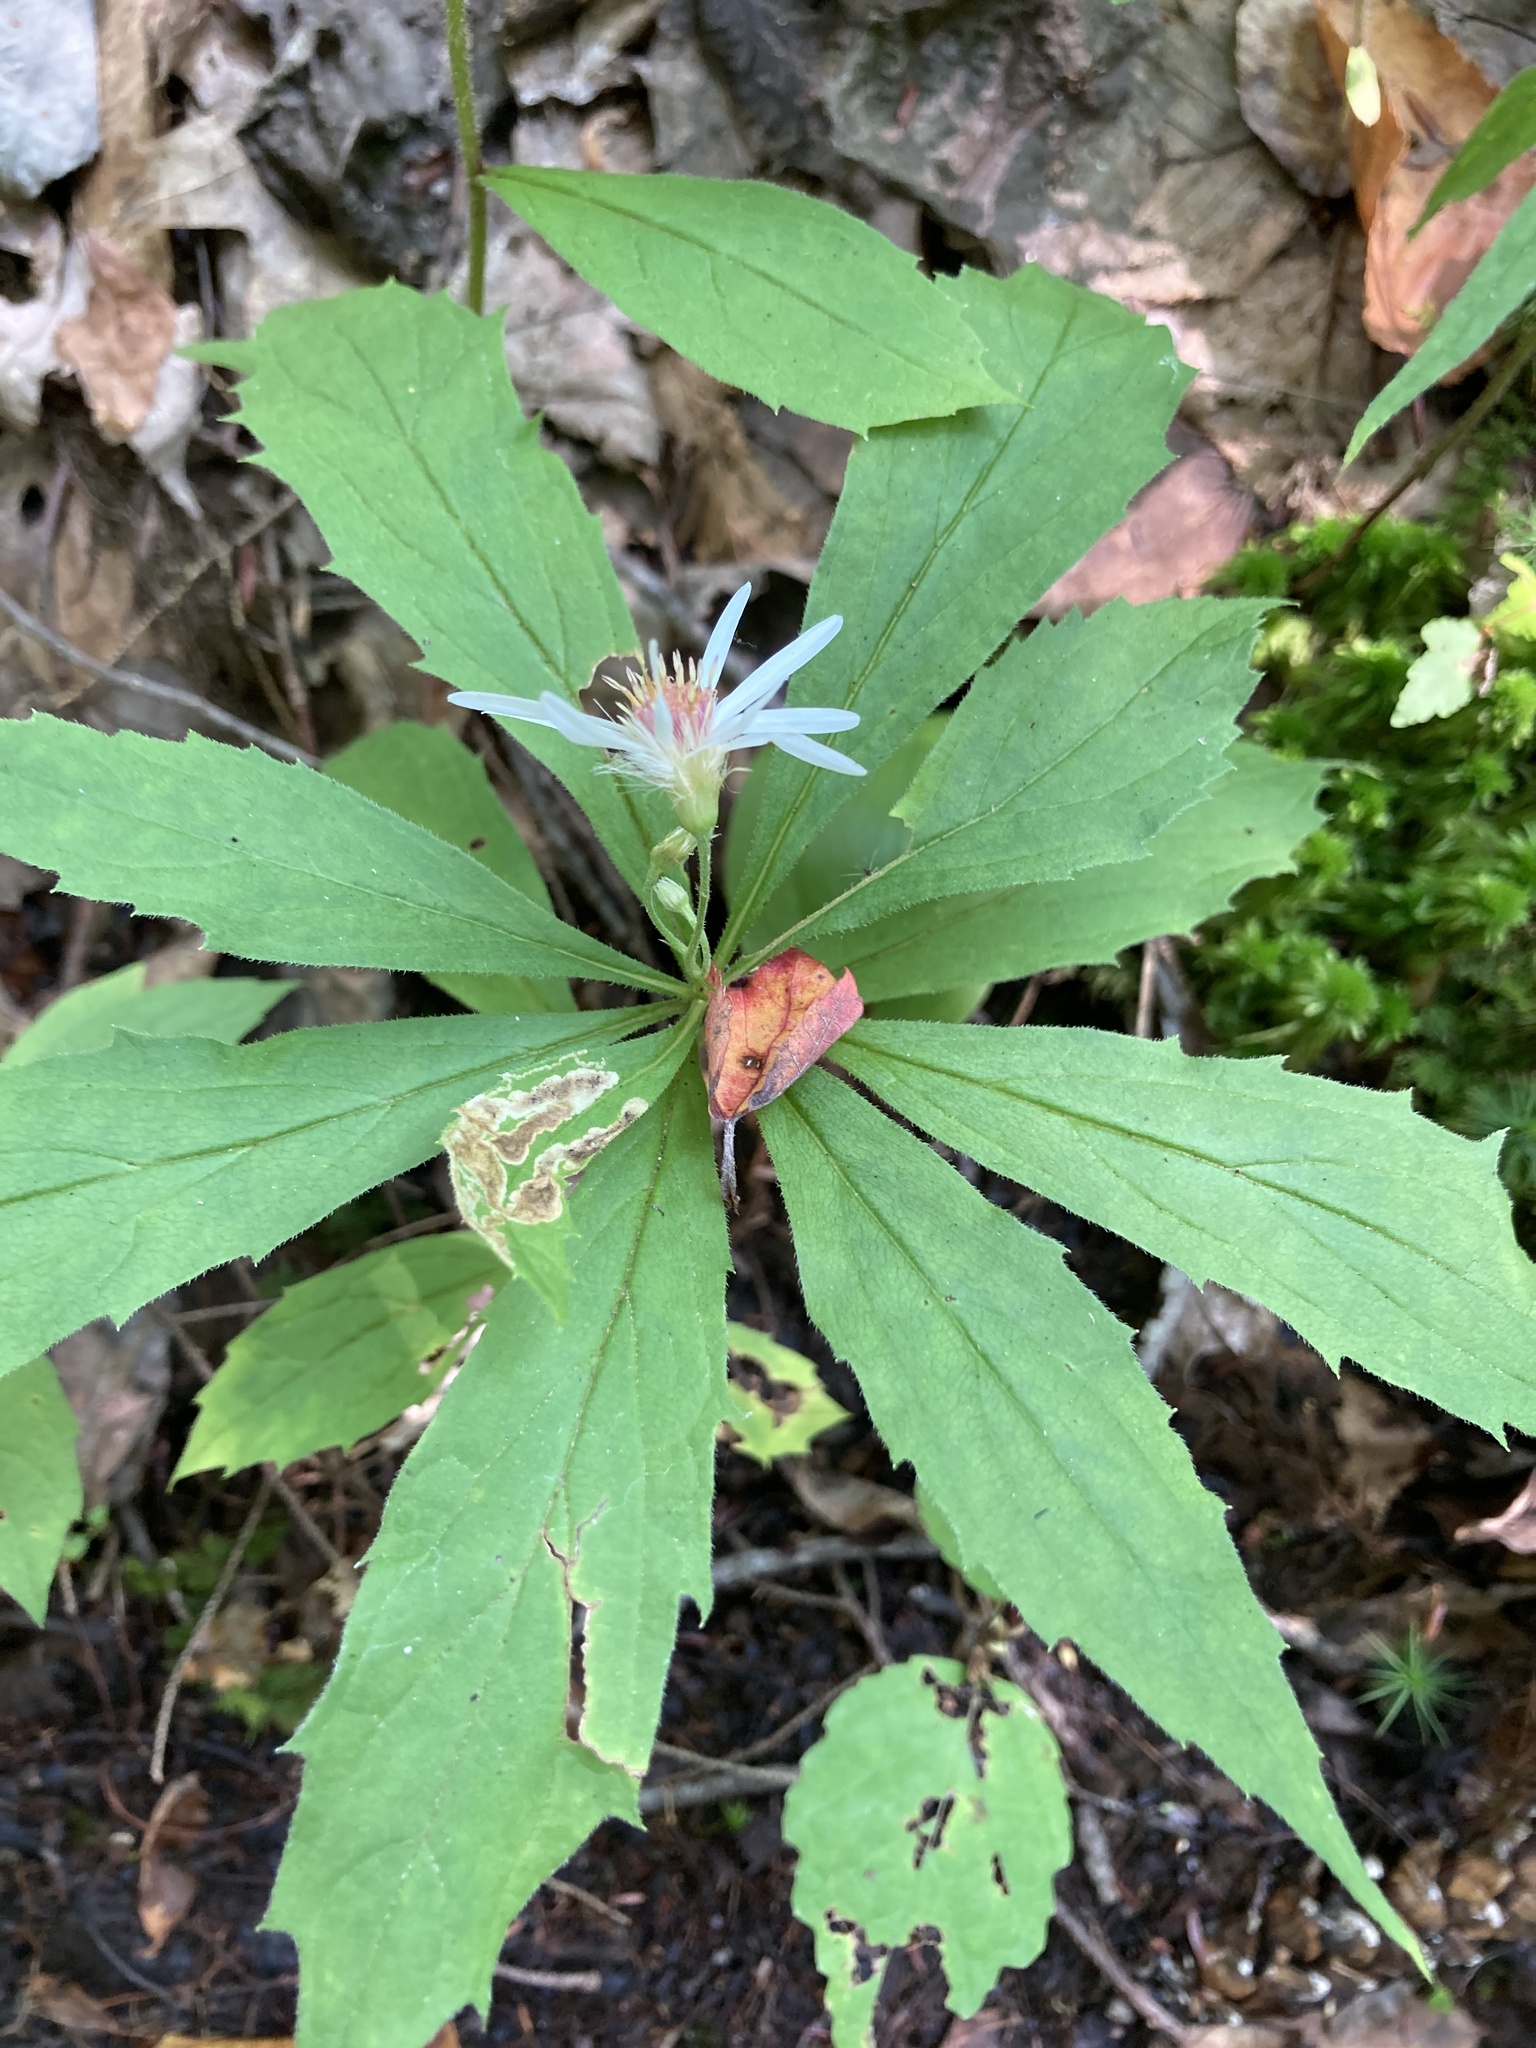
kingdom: Plantae
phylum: Tracheophyta
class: Magnoliopsida
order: Asterales
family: Asteraceae
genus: Oclemena
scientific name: Oclemena acuminata
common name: Mountain aster
